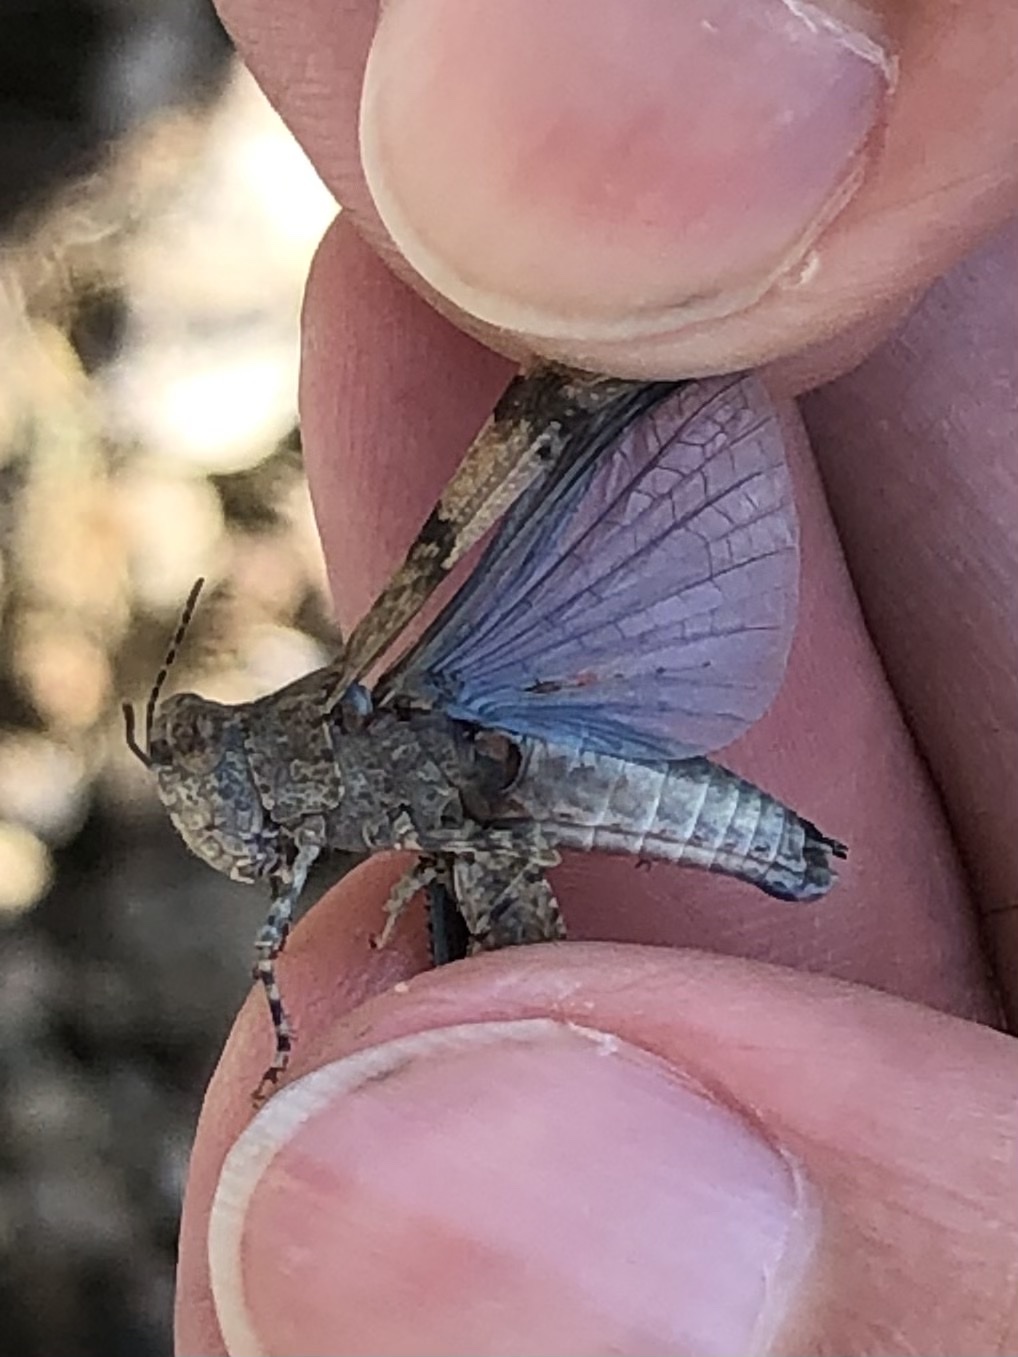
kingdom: Animalia
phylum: Arthropoda
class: Insecta
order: Orthoptera
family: Acrididae
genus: Sphingonotus
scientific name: Sphingonotus caerulans
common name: Blue-winged locust
